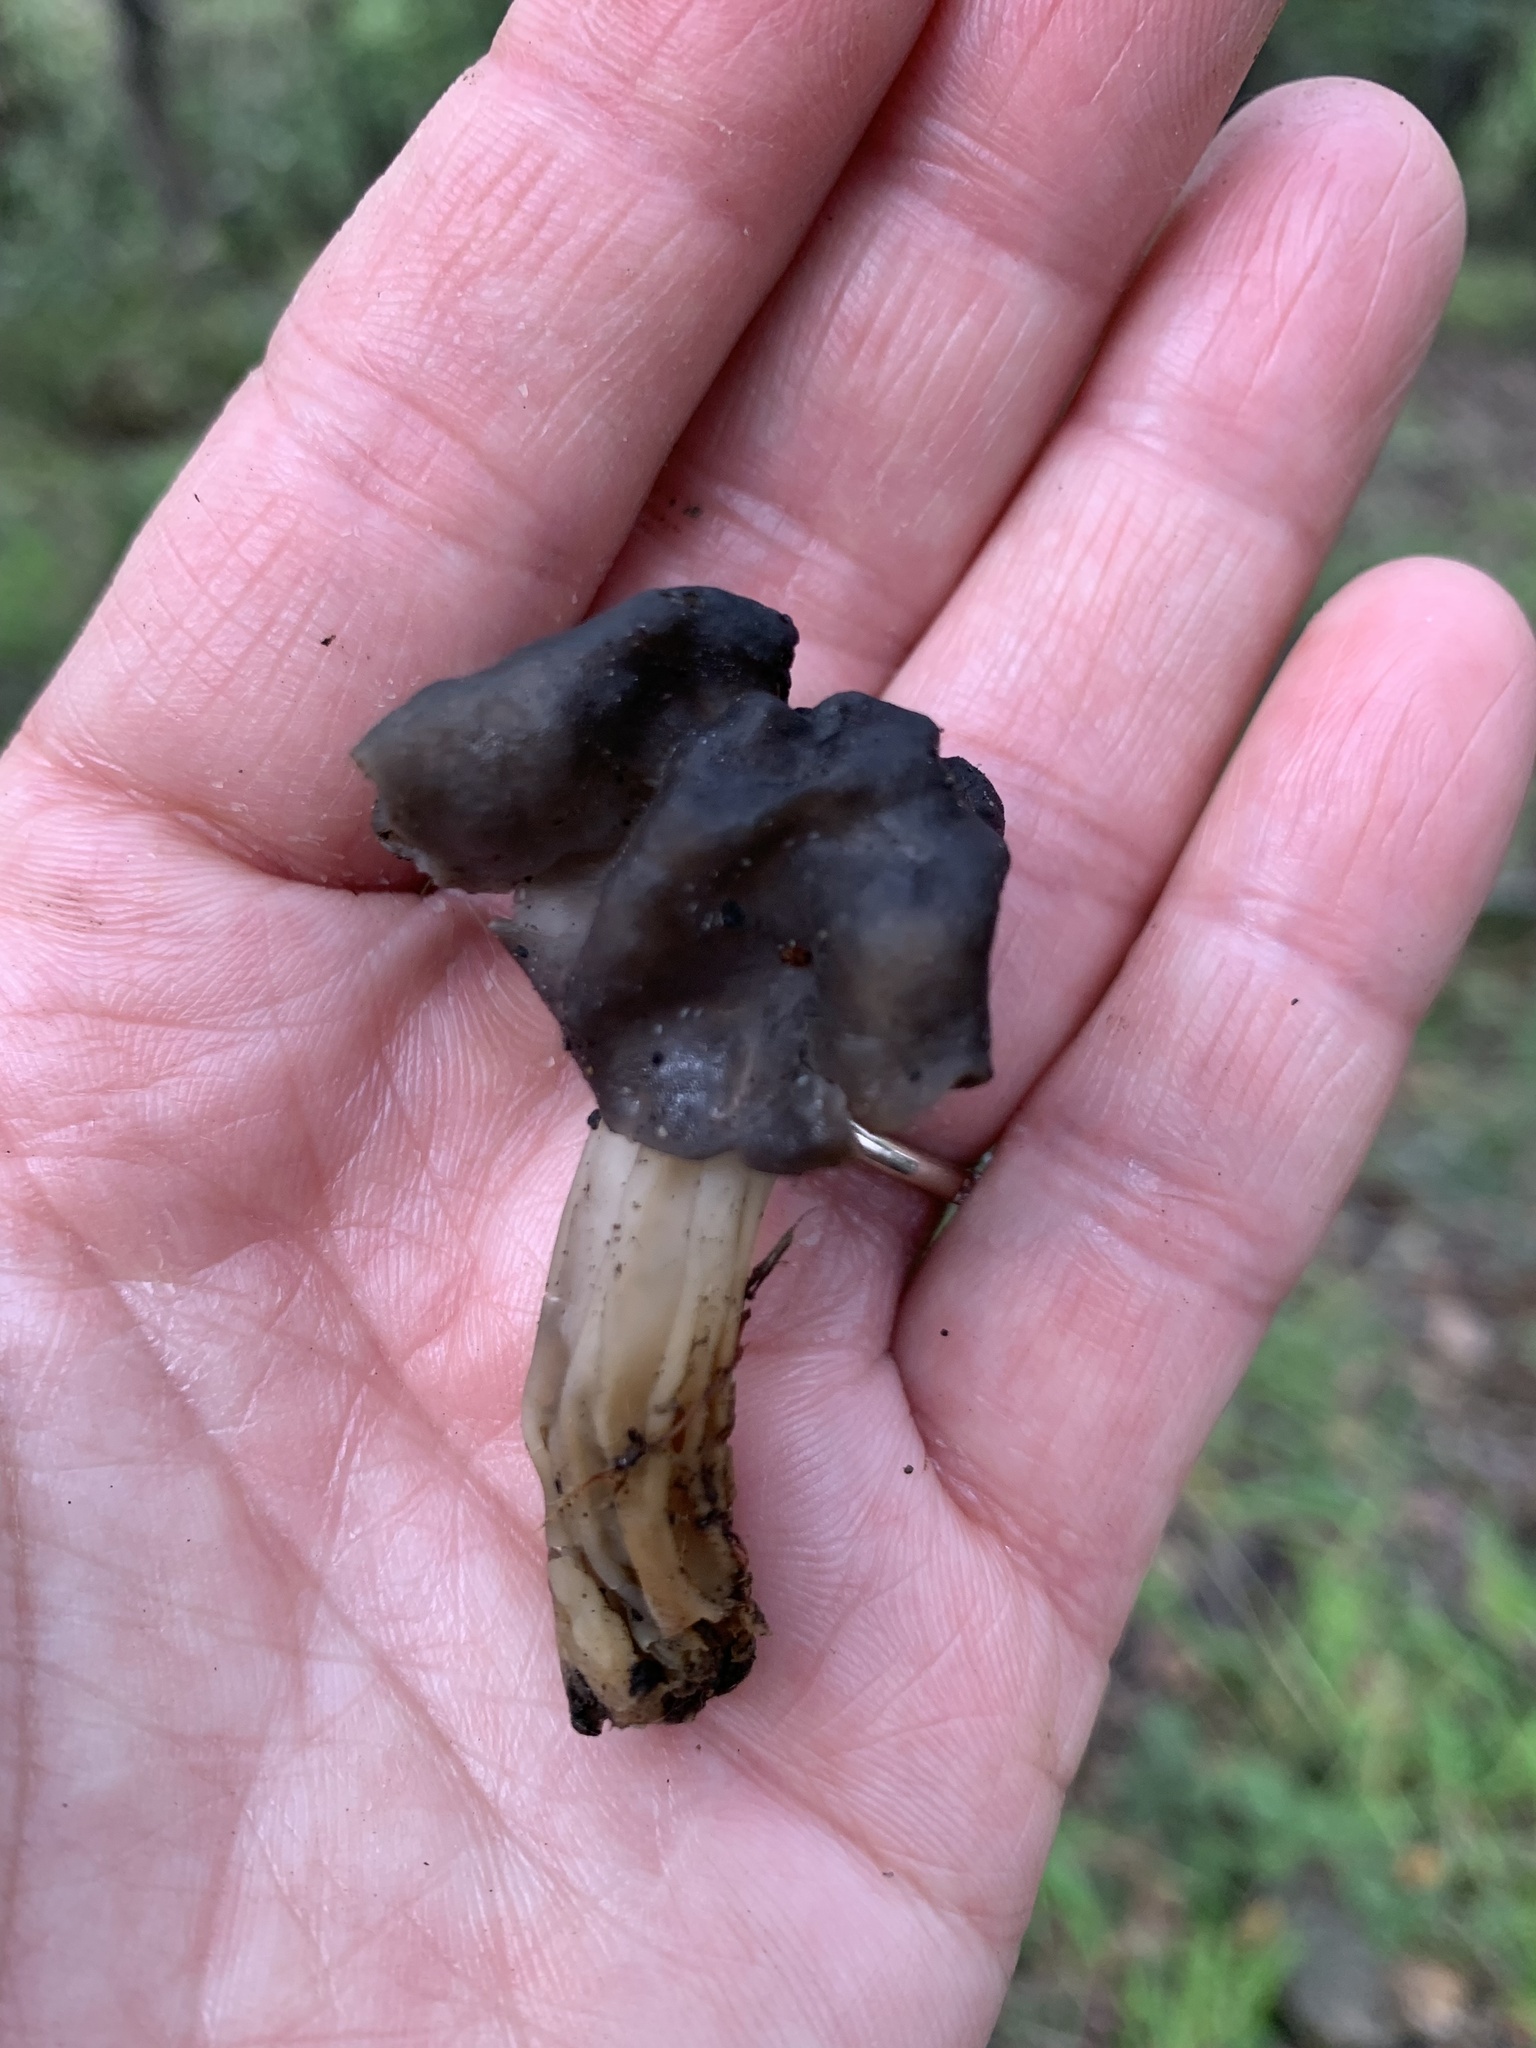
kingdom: Fungi
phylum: Ascomycota
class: Pezizomycetes
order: Pezizales
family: Helvellaceae
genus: Helvella
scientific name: Helvella dryophila
